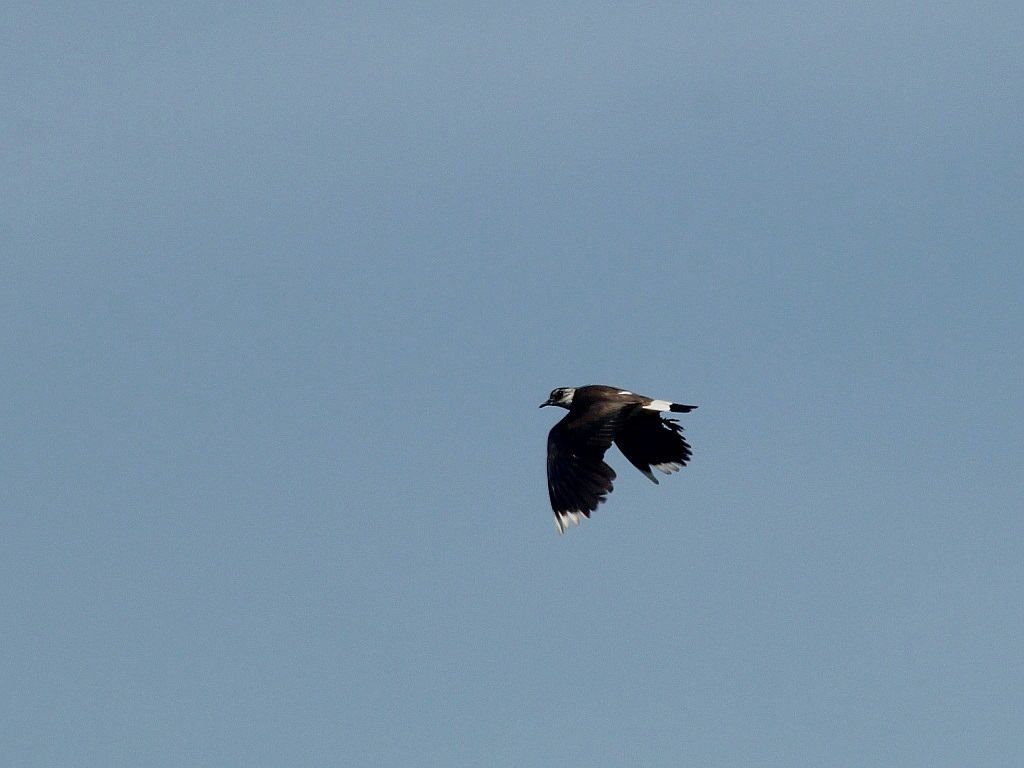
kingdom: Animalia
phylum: Chordata
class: Aves
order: Charadriiformes
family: Charadriidae
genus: Vanellus
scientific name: Vanellus vanellus
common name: Northern lapwing
